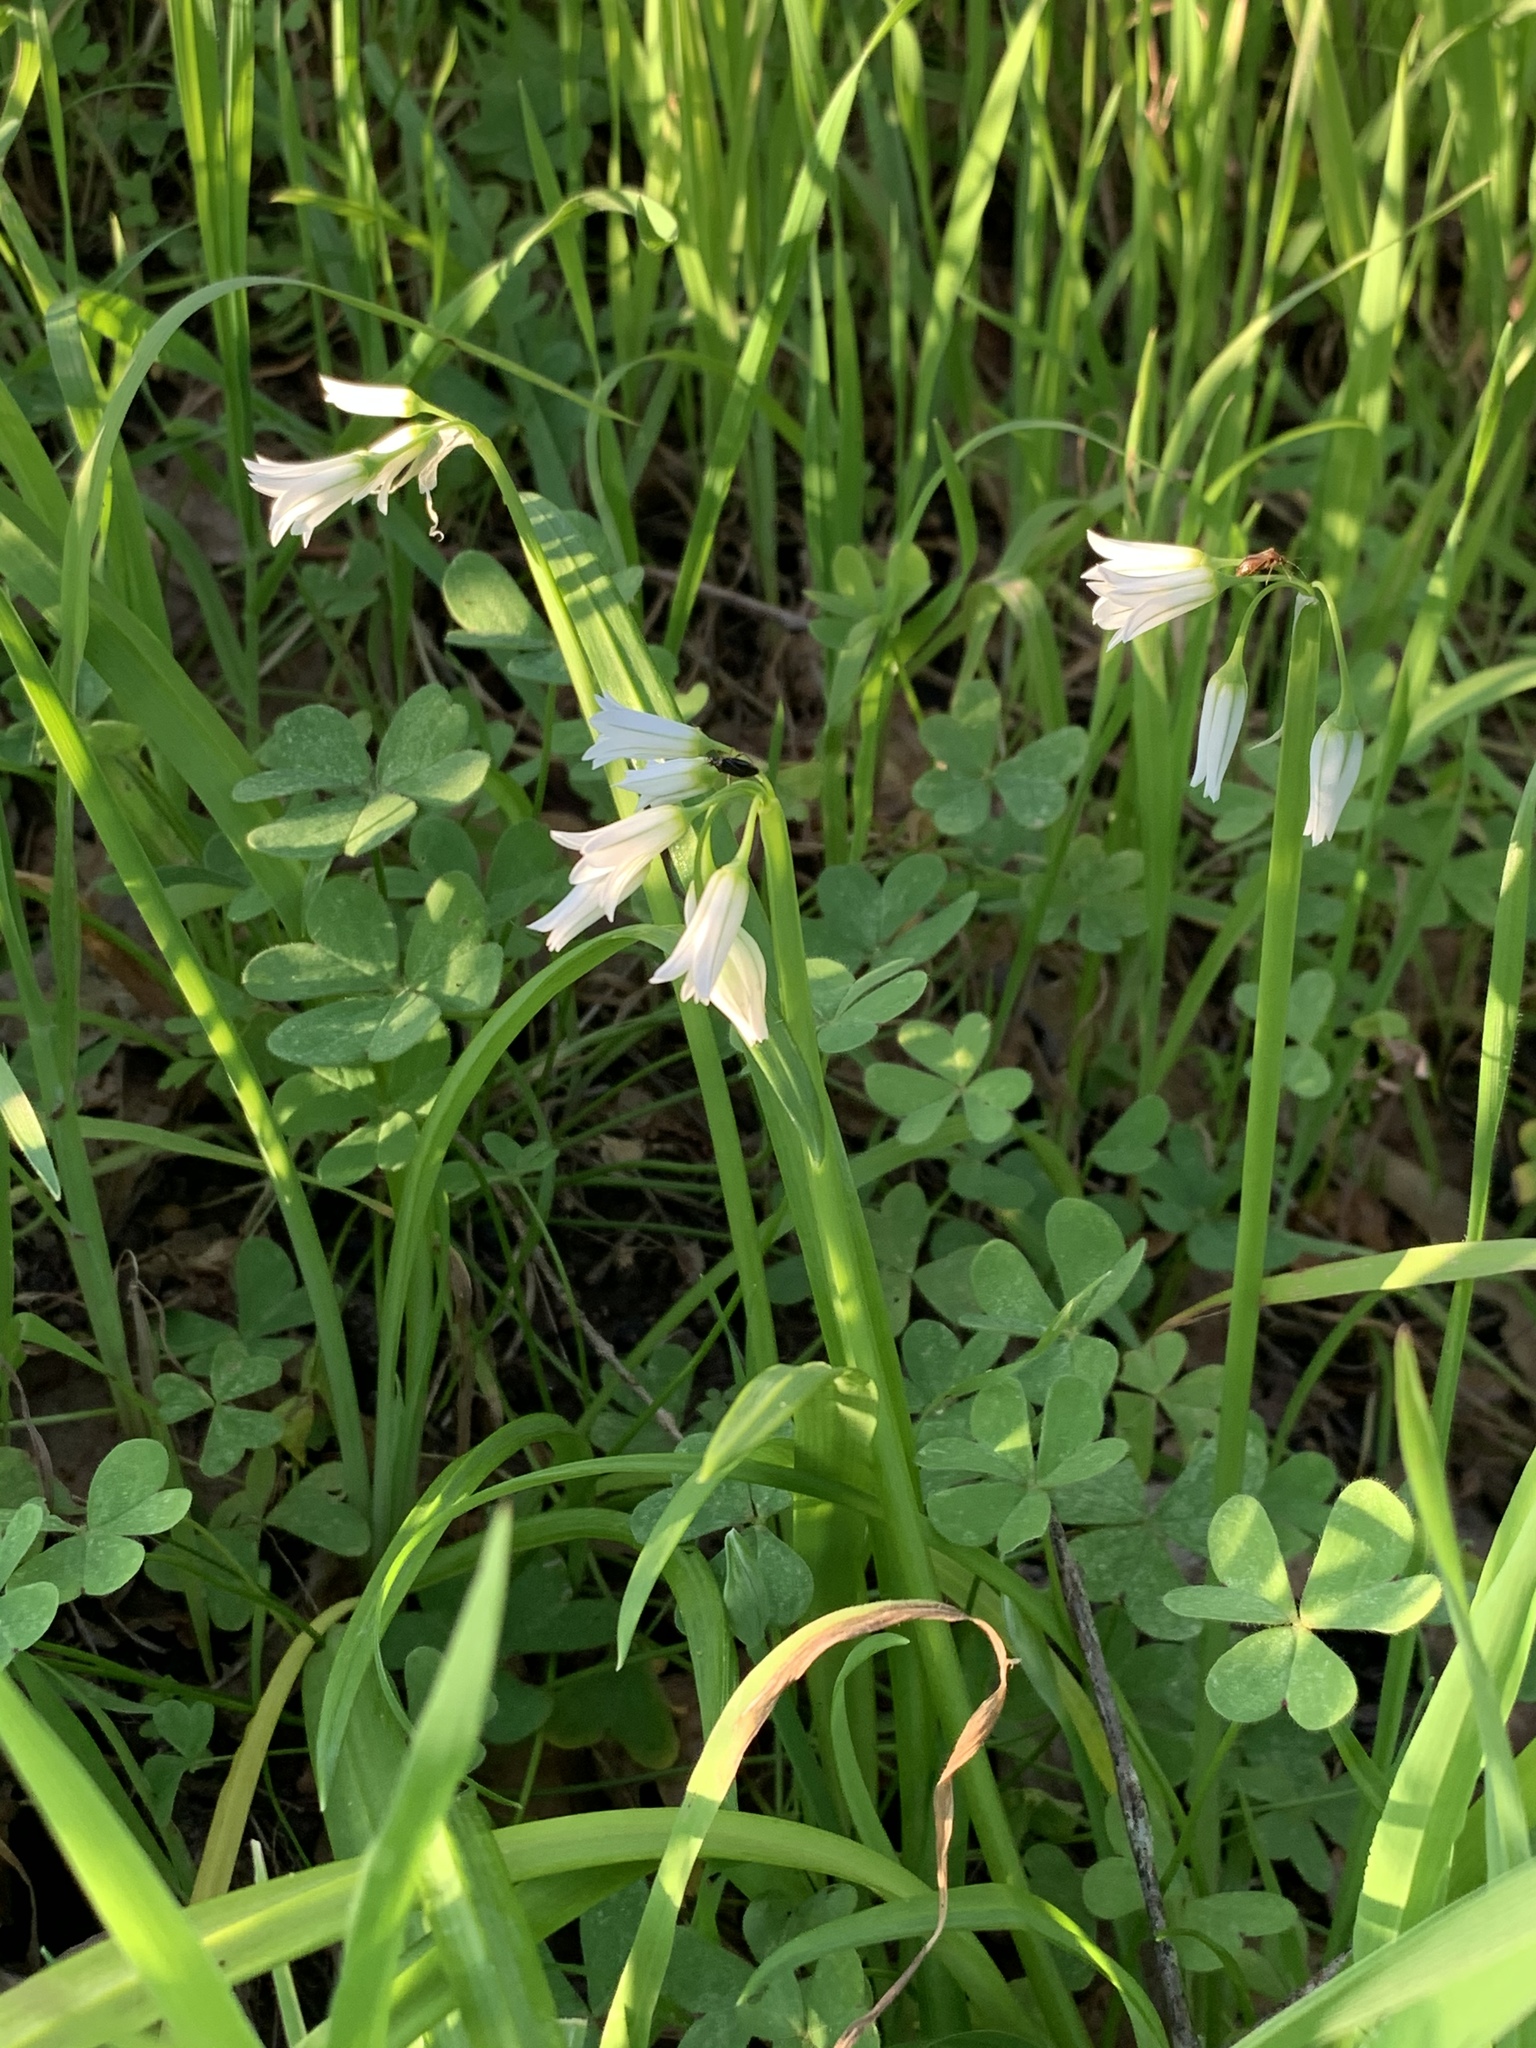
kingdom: Plantae
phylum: Tracheophyta
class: Liliopsida
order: Asparagales
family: Amaryllidaceae
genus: Allium
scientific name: Allium triquetrum
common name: Three-cornered garlic
